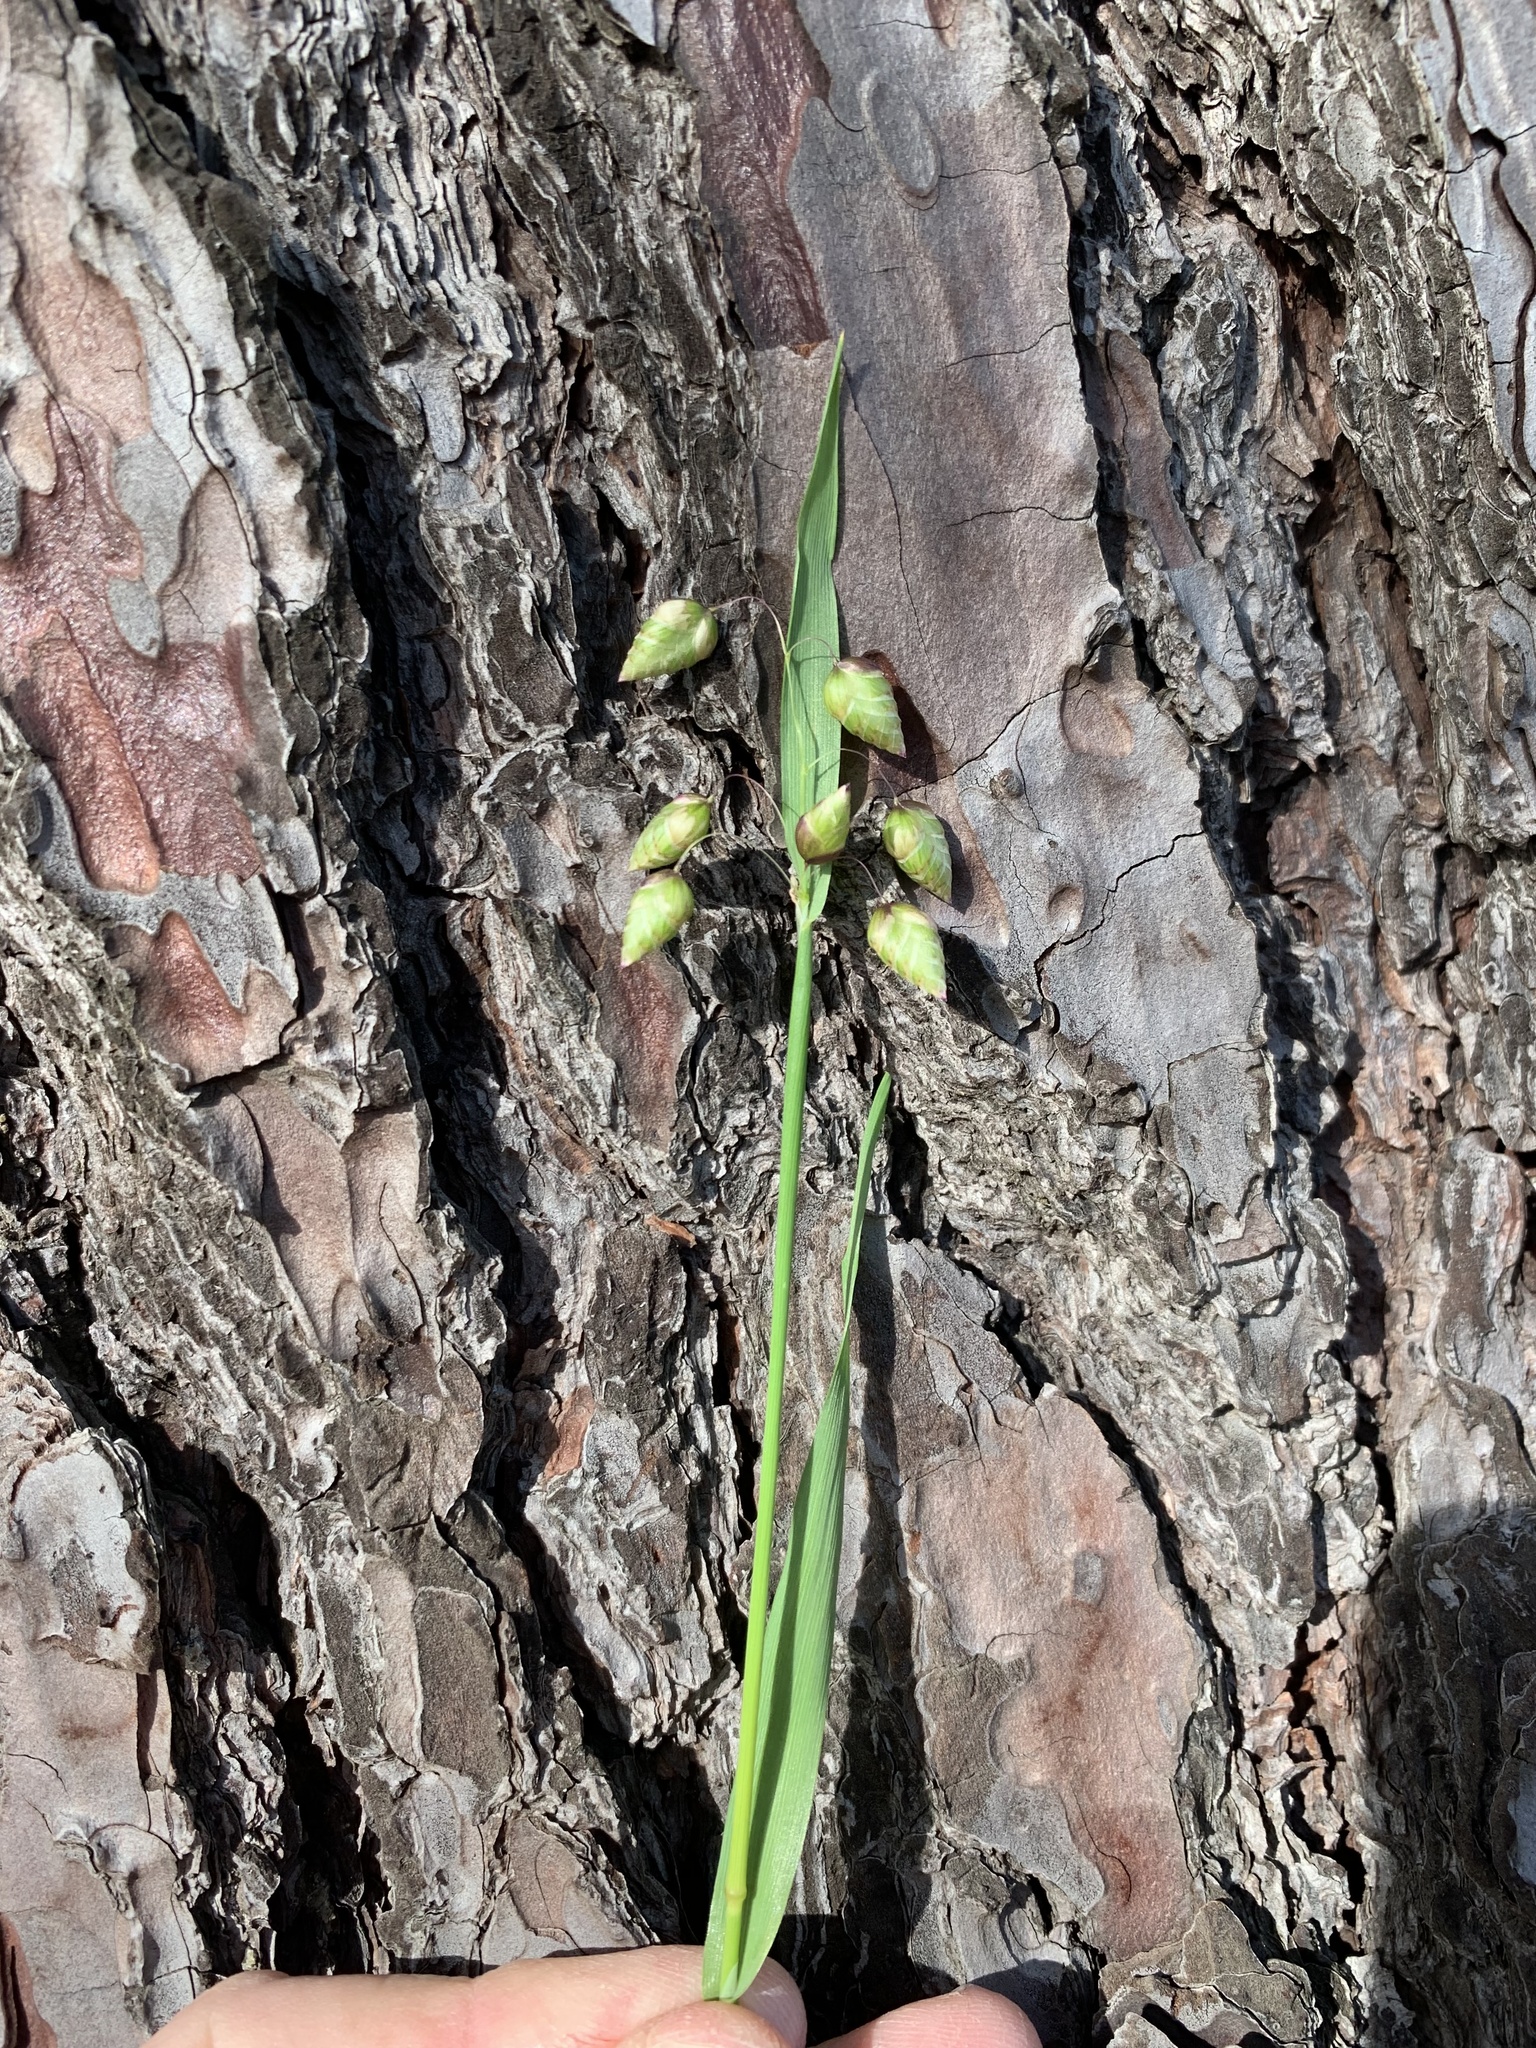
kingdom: Plantae
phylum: Tracheophyta
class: Liliopsida
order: Poales
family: Poaceae
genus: Briza
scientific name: Briza maxima
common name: Big quakinggrass
